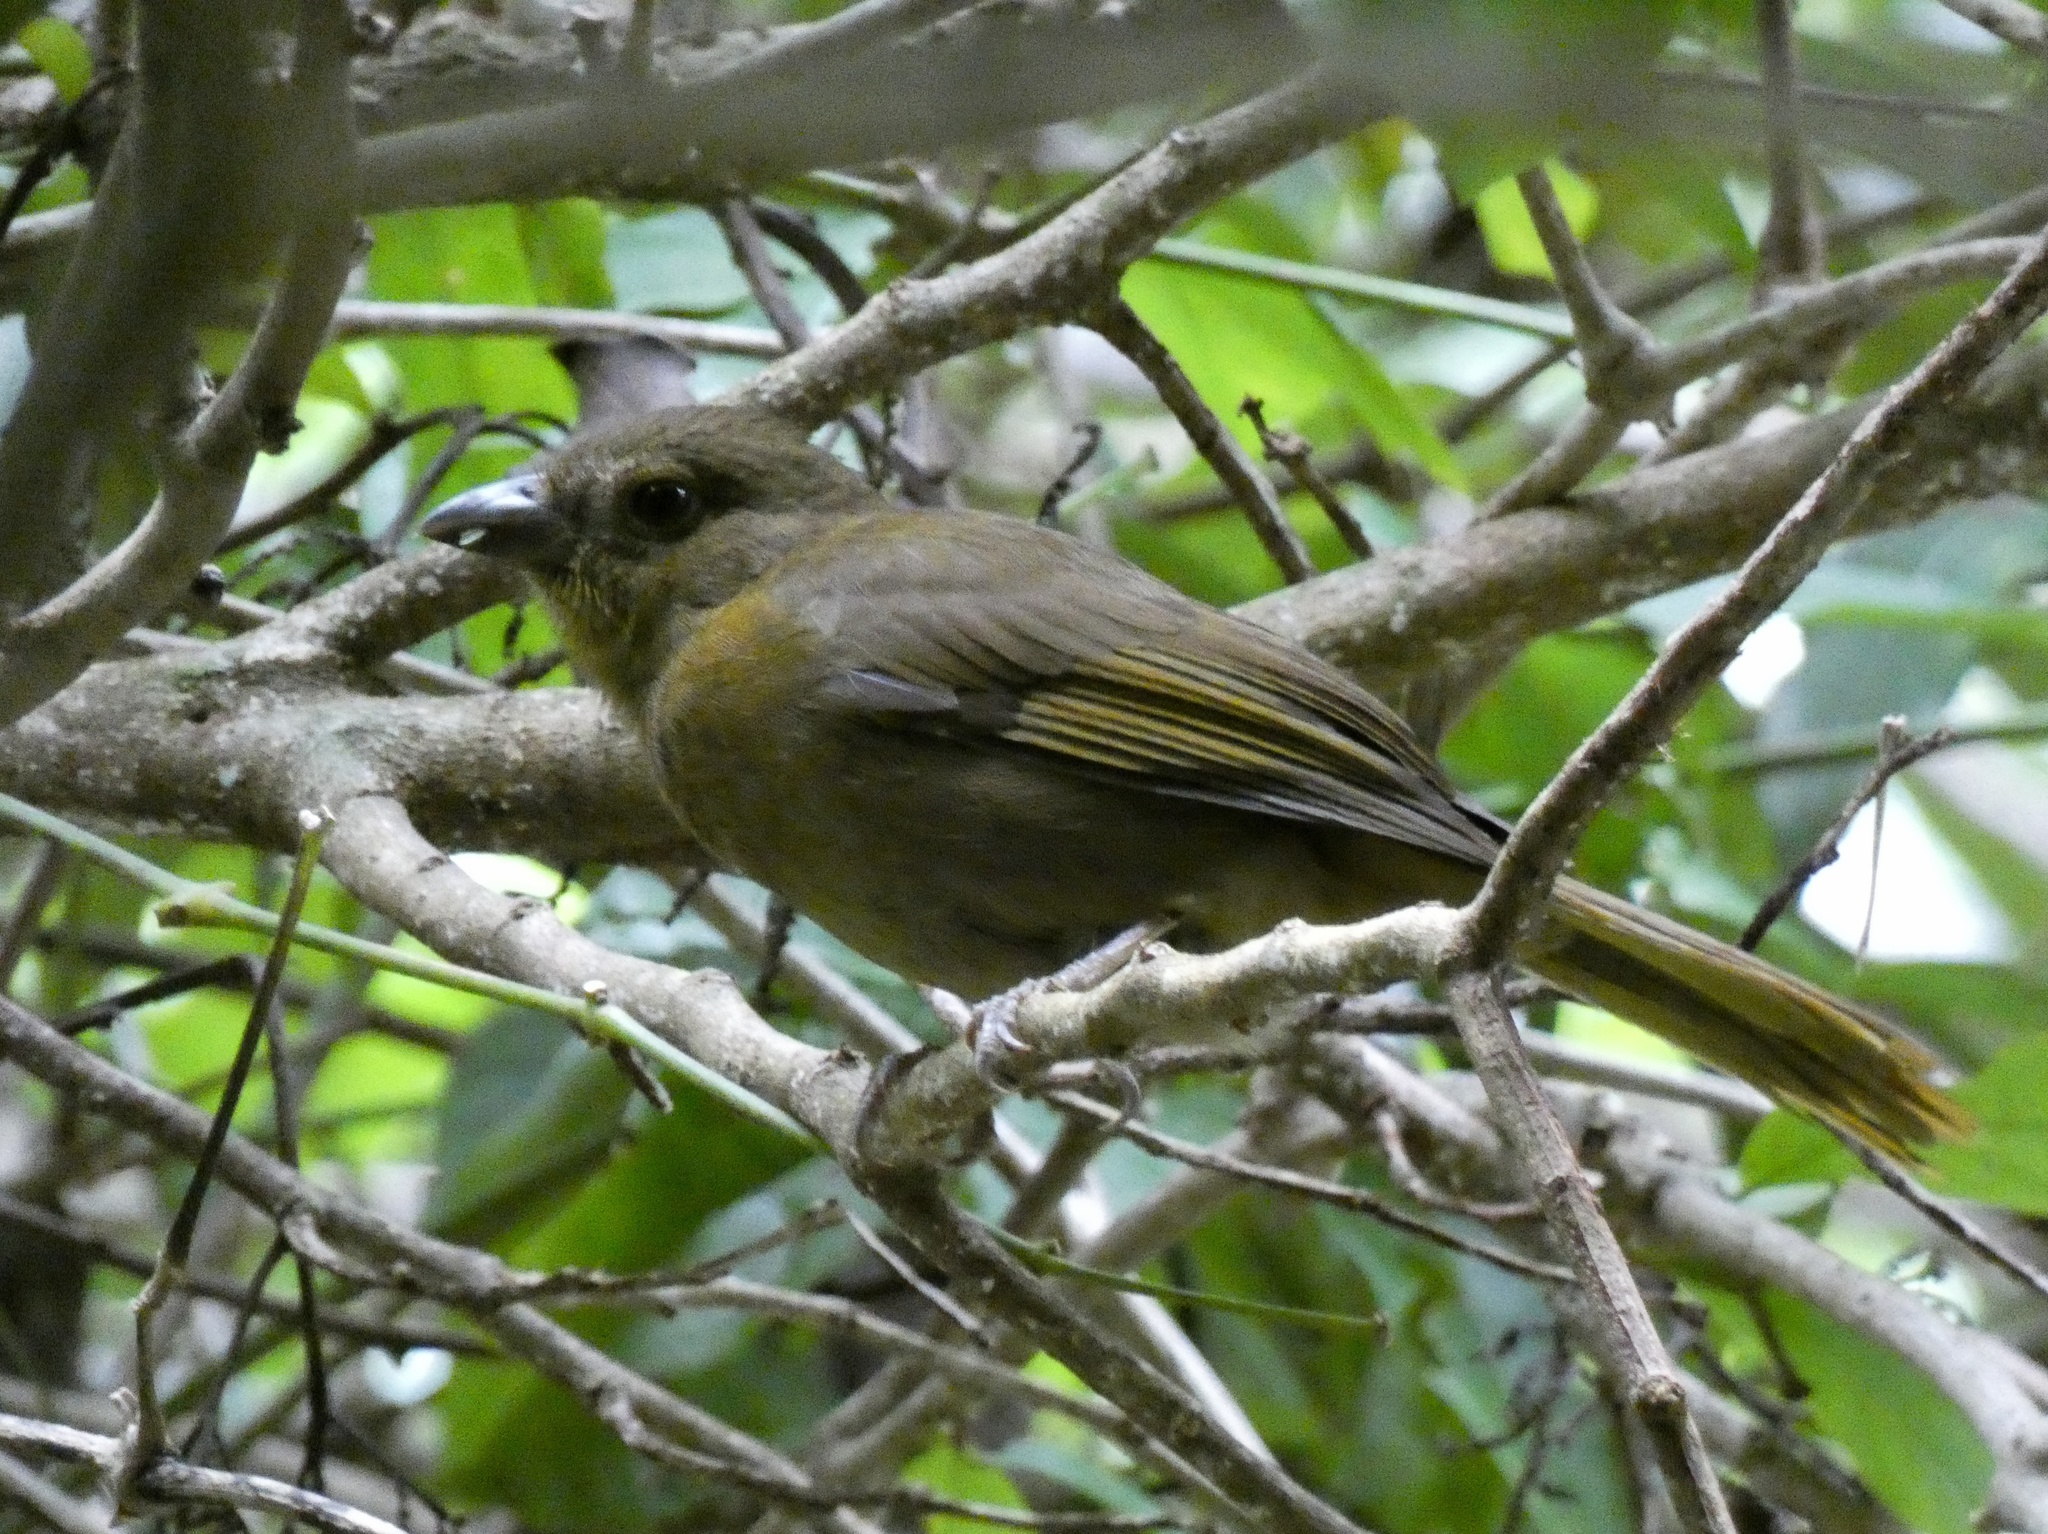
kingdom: Animalia
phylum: Chordata
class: Aves
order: Passeriformes
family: Cardinalidae
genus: Habia
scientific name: Habia rubica
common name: Red-crowned ant-tanager
